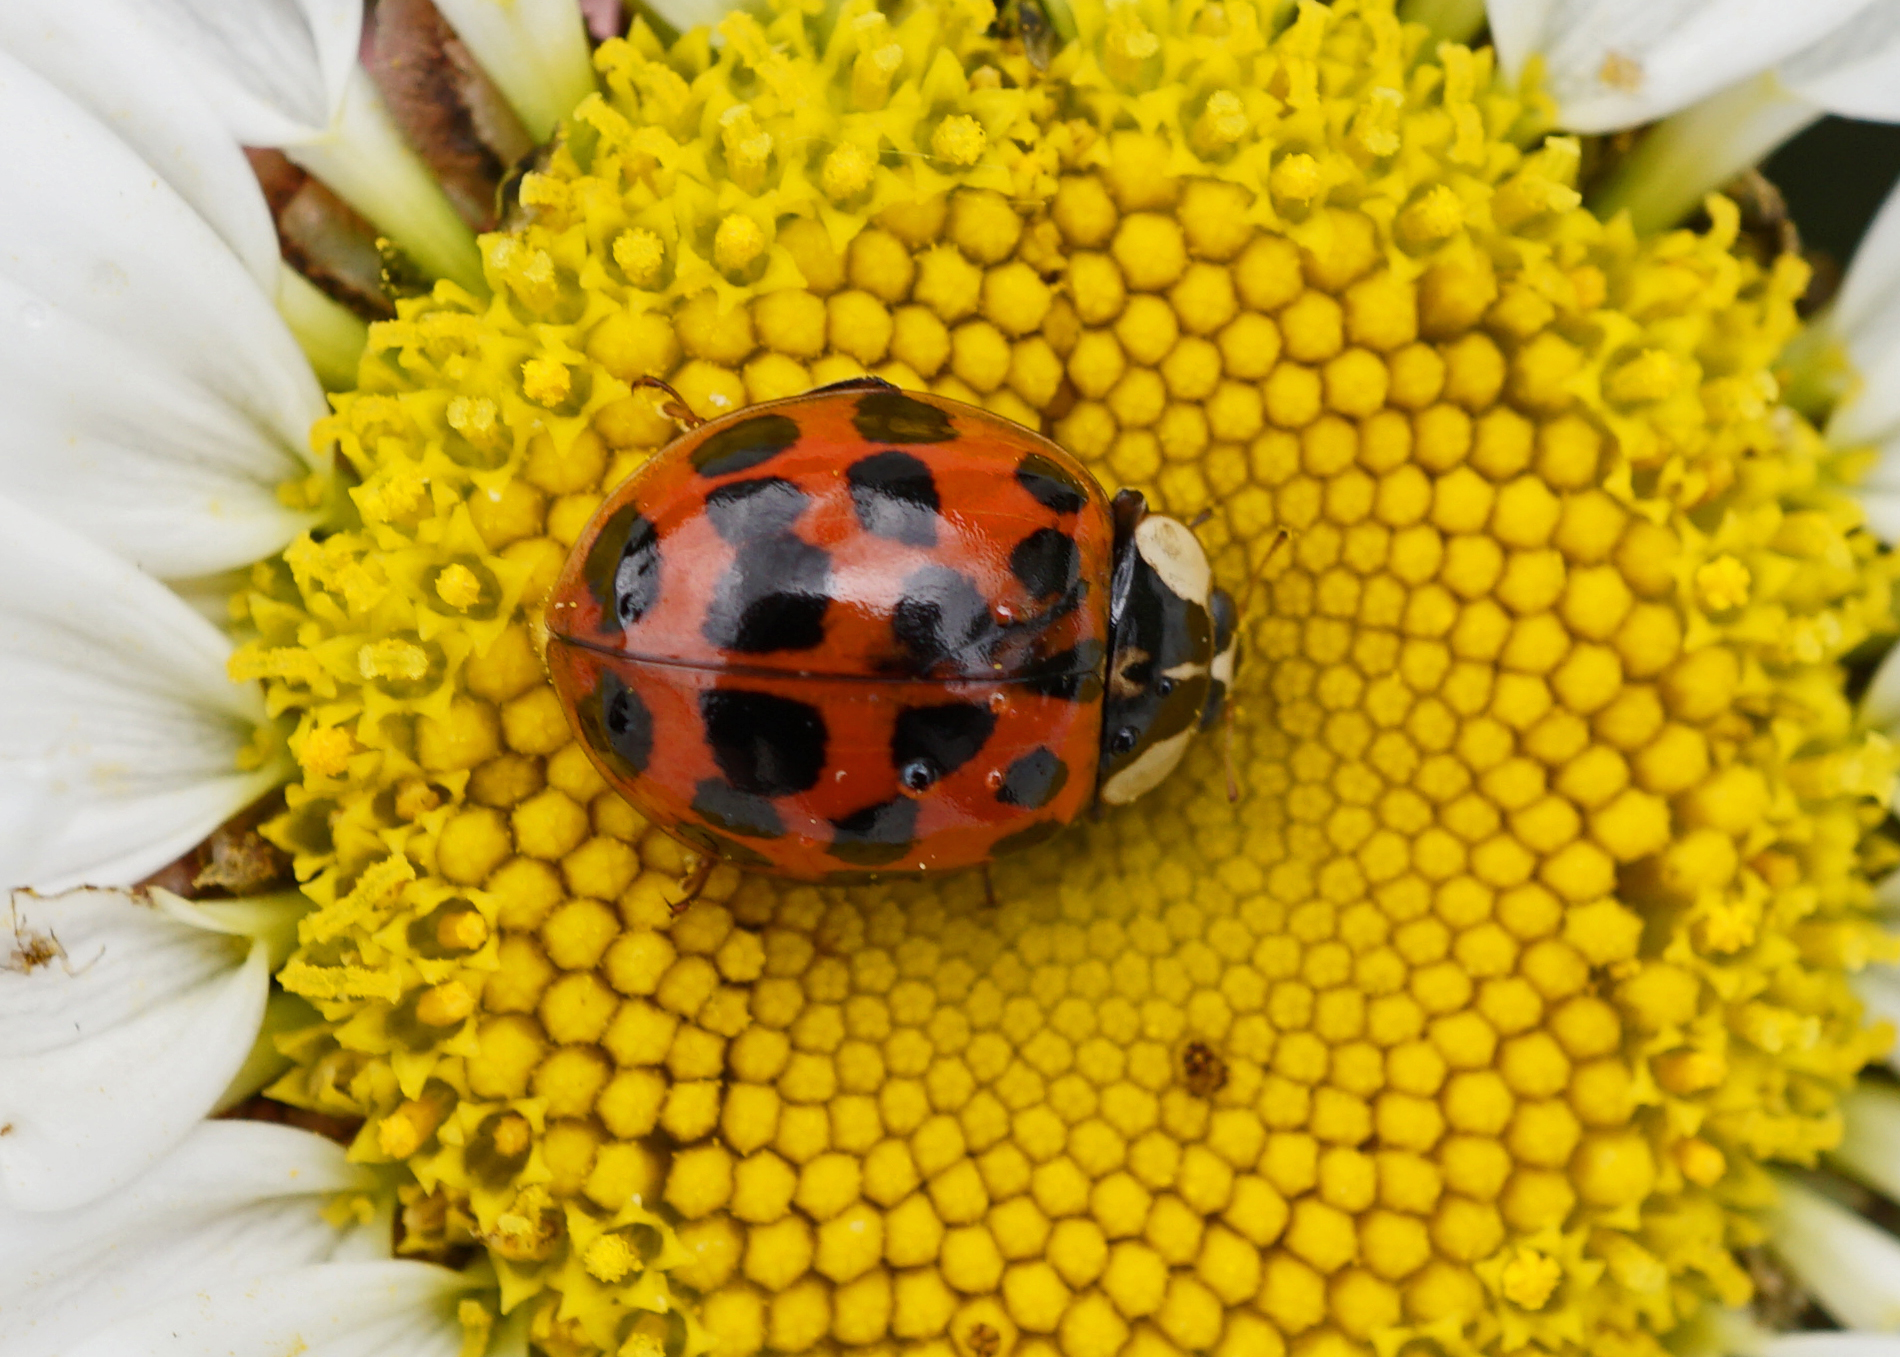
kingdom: Animalia
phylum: Arthropoda
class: Insecta
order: Coleoptera
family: Coccinellidae
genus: Harmonia
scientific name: Harmonia axyridis
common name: Harlequin ladybird
